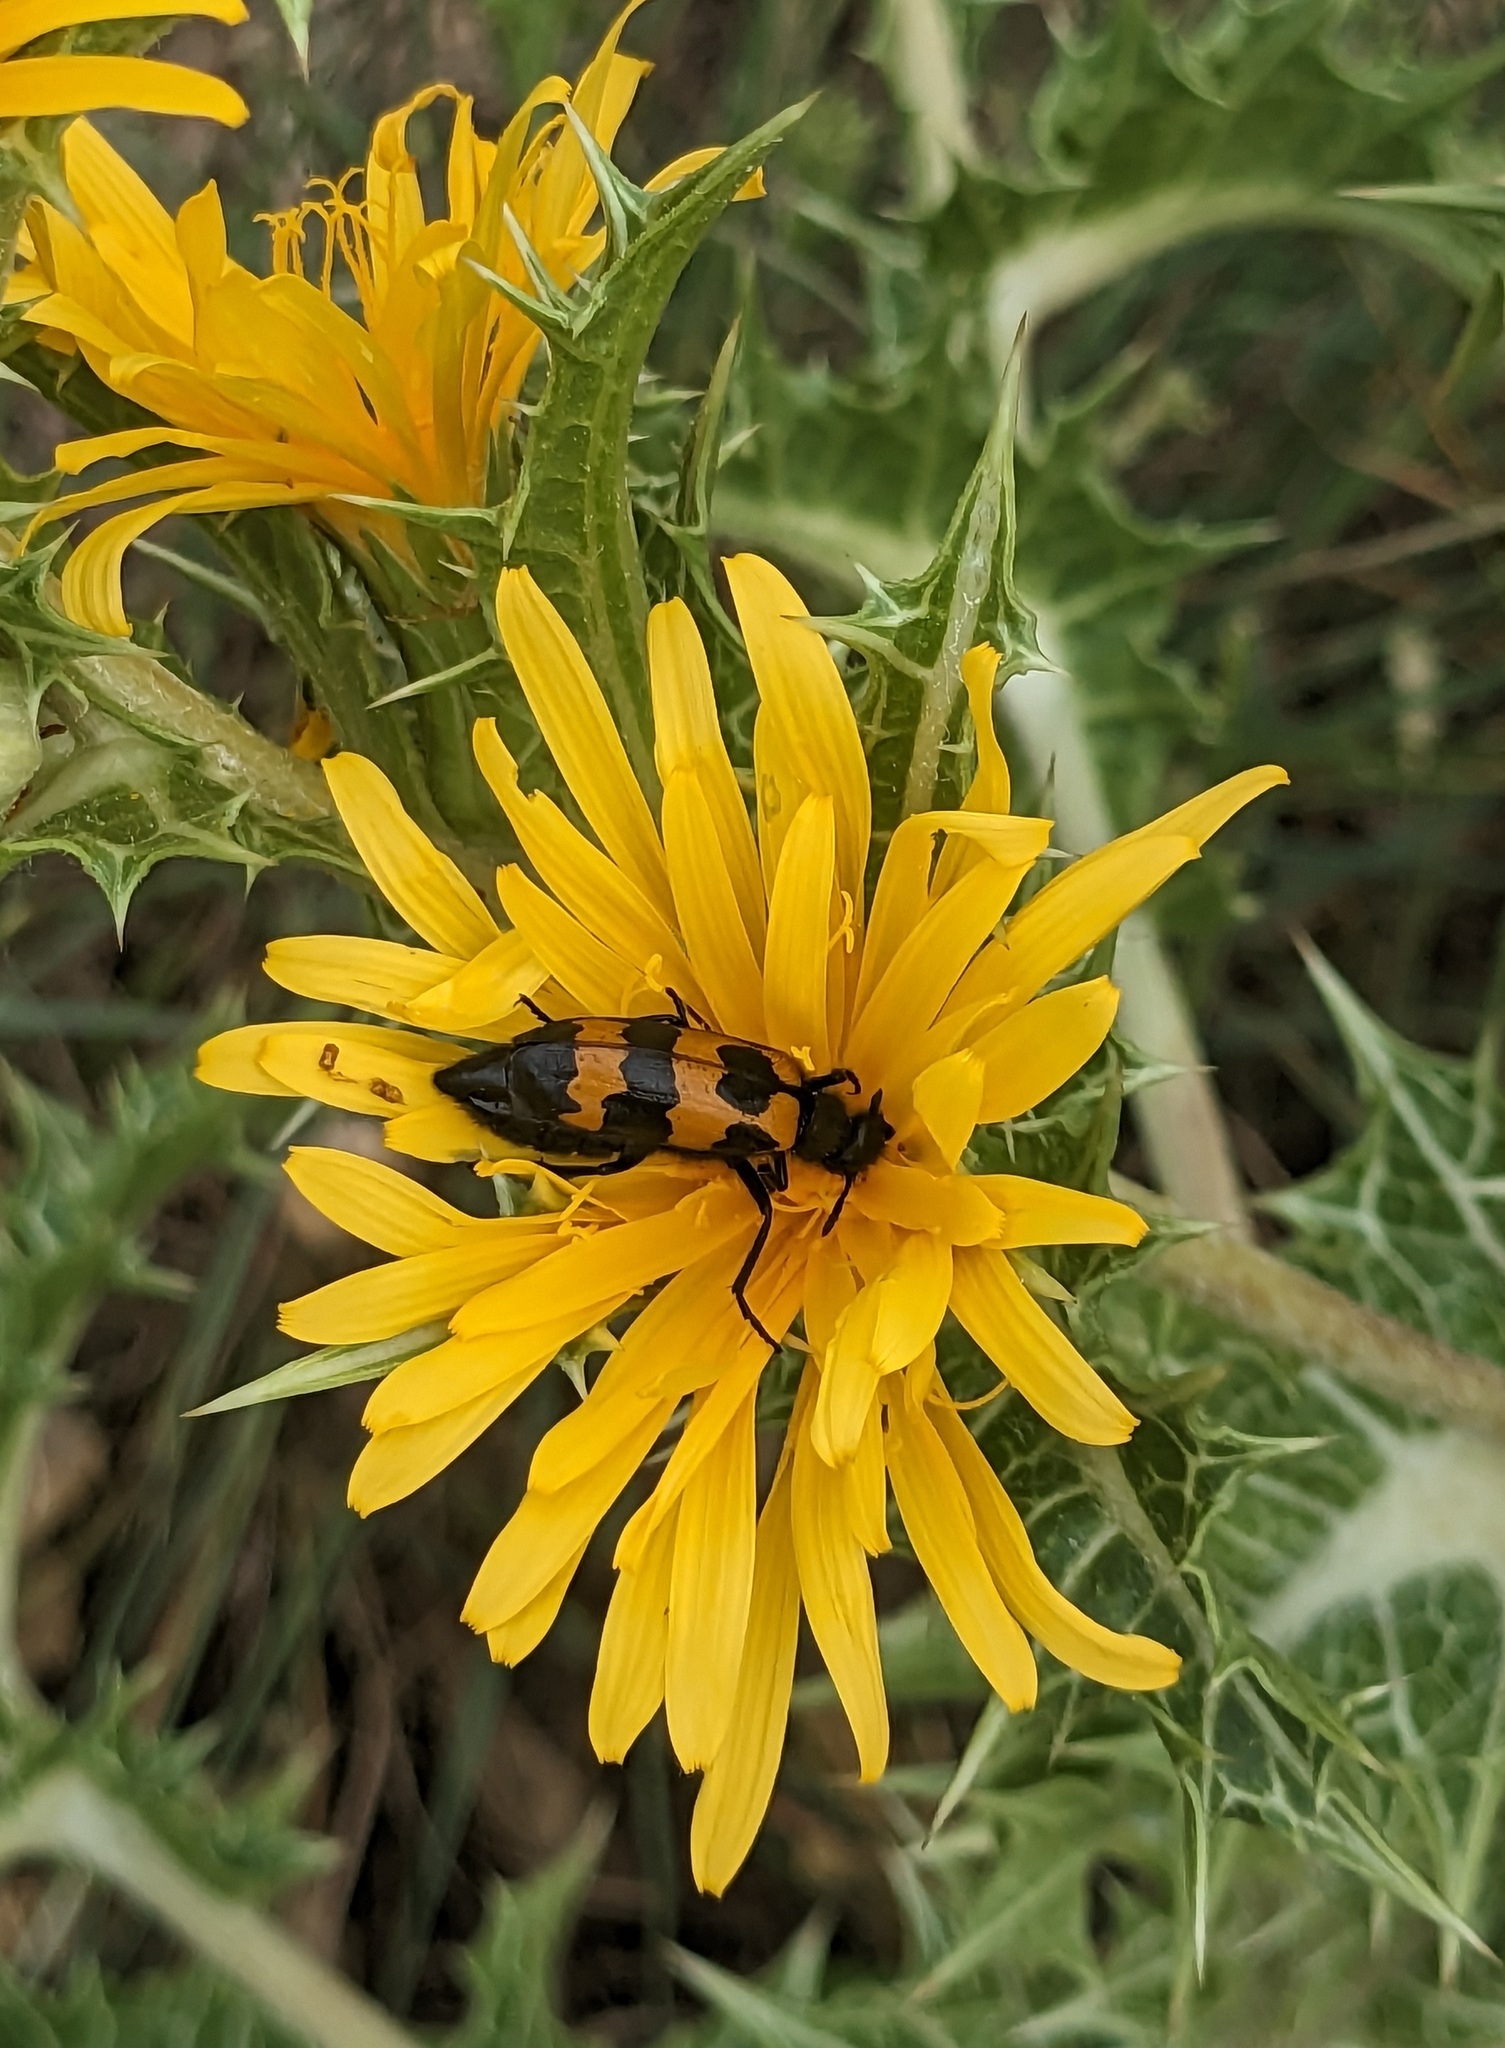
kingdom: Animalia
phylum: Arthropoda
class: Insecta
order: Coleoptera
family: Meloidae
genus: Mylabris
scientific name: Mylabris variabilis
